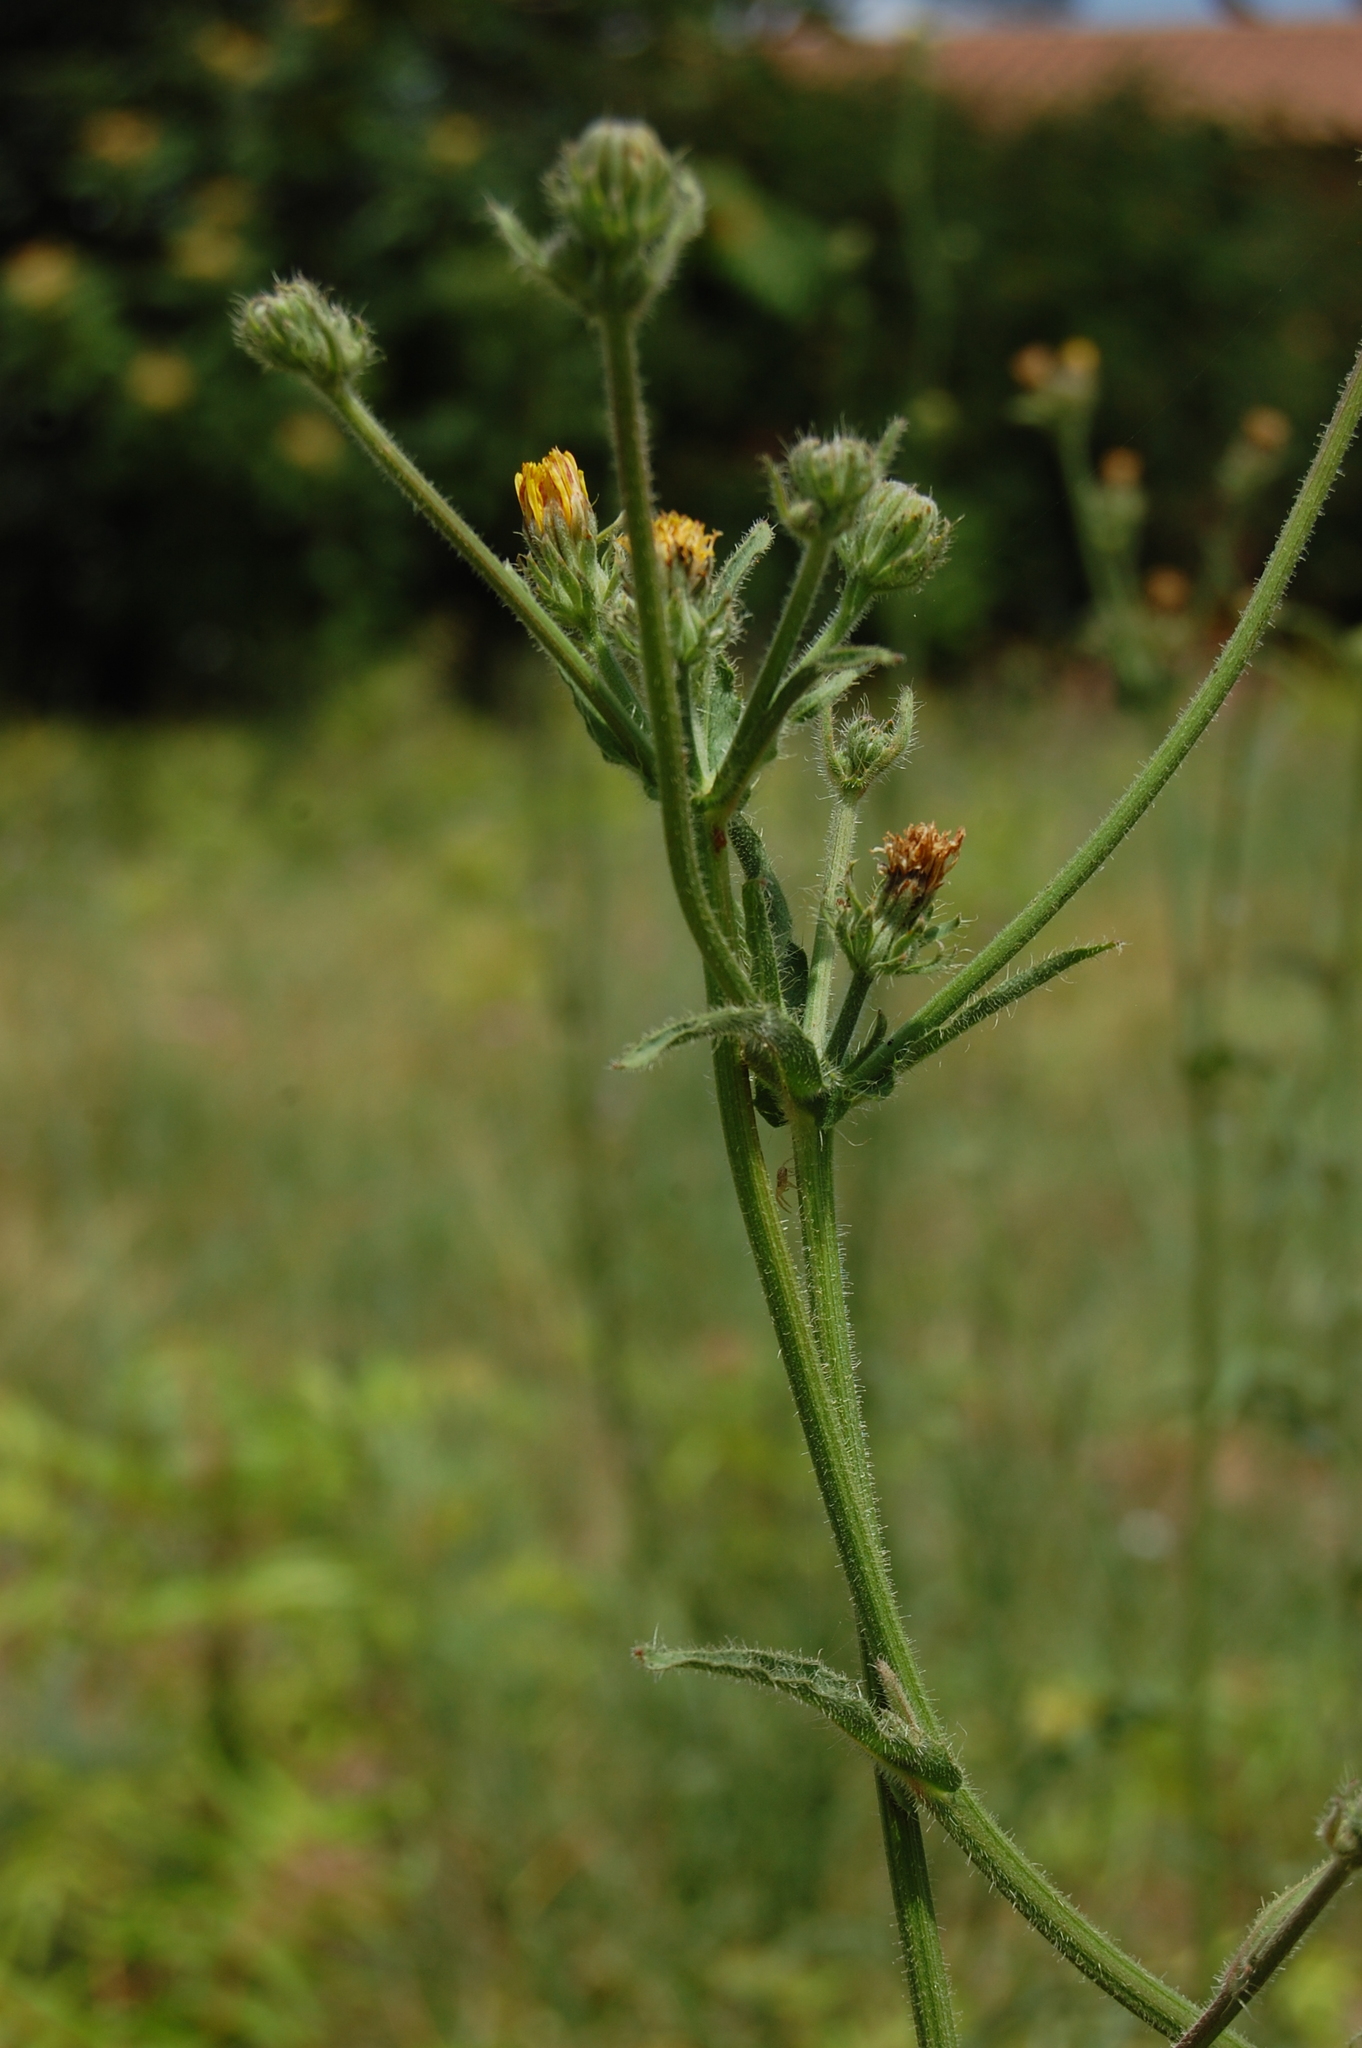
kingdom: Plantae
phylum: Tracheophyta
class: Magnoliopsida
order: Asterales
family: Asteraceae
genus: Picris
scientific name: Picris hieracioides
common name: Hawkweed oxtongue
